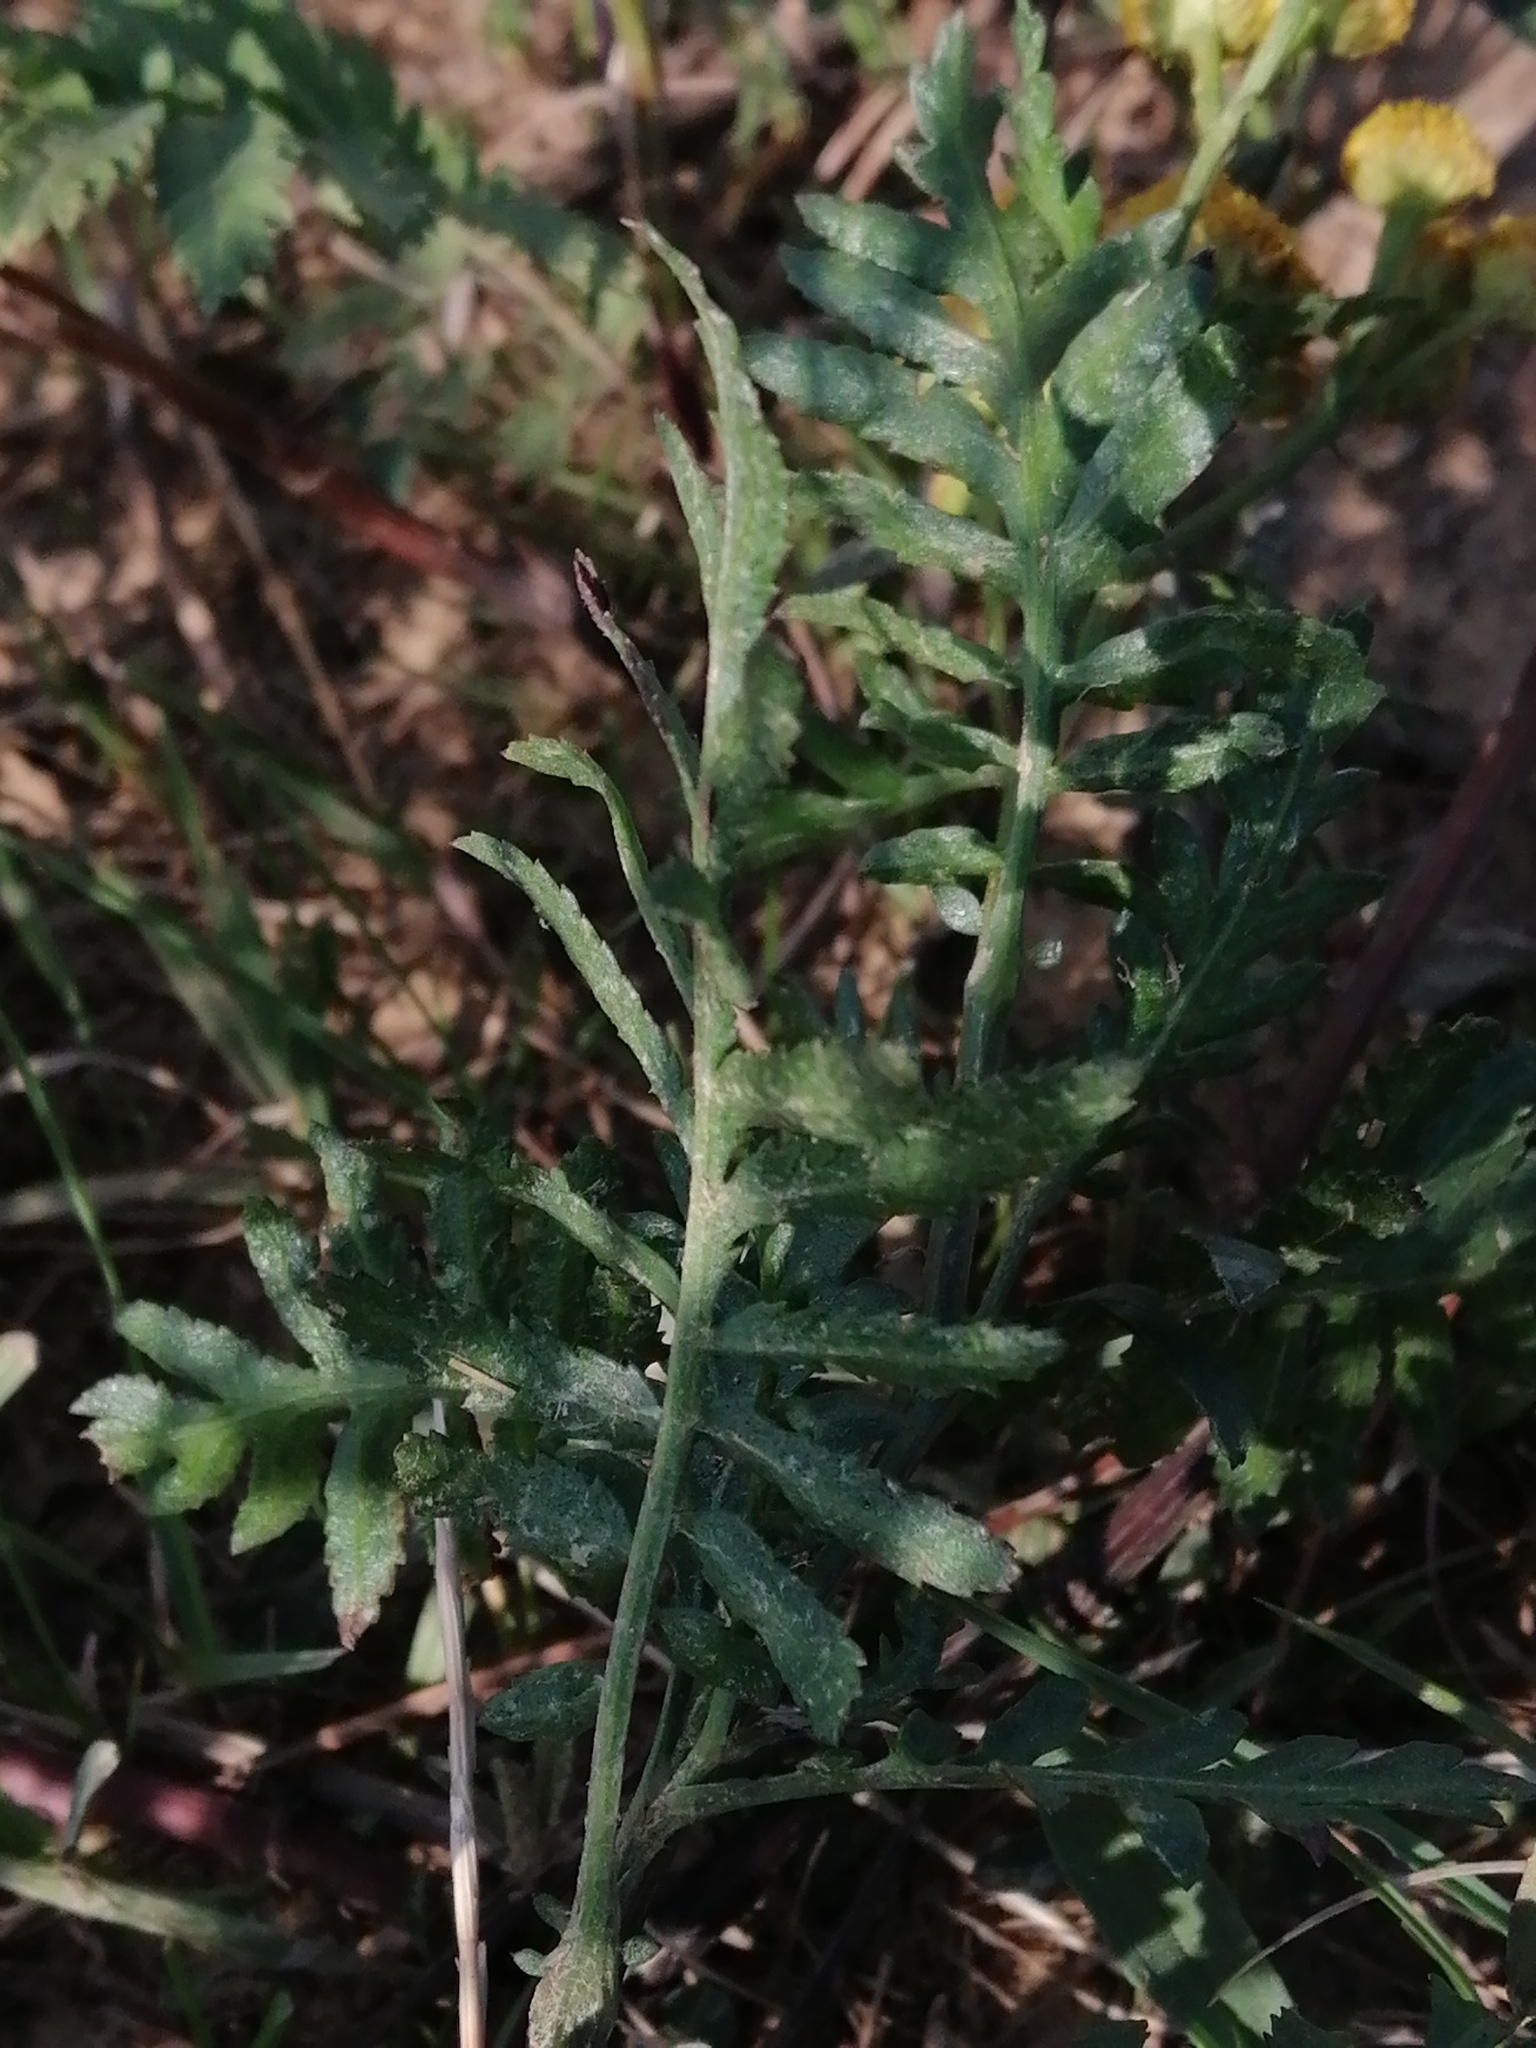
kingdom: Plantae
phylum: Tracheophyta
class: Magnoliopsida
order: Asterales
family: Asteraceae
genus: Tanacetum
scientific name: Tanacetum vulgare
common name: Common tansy
